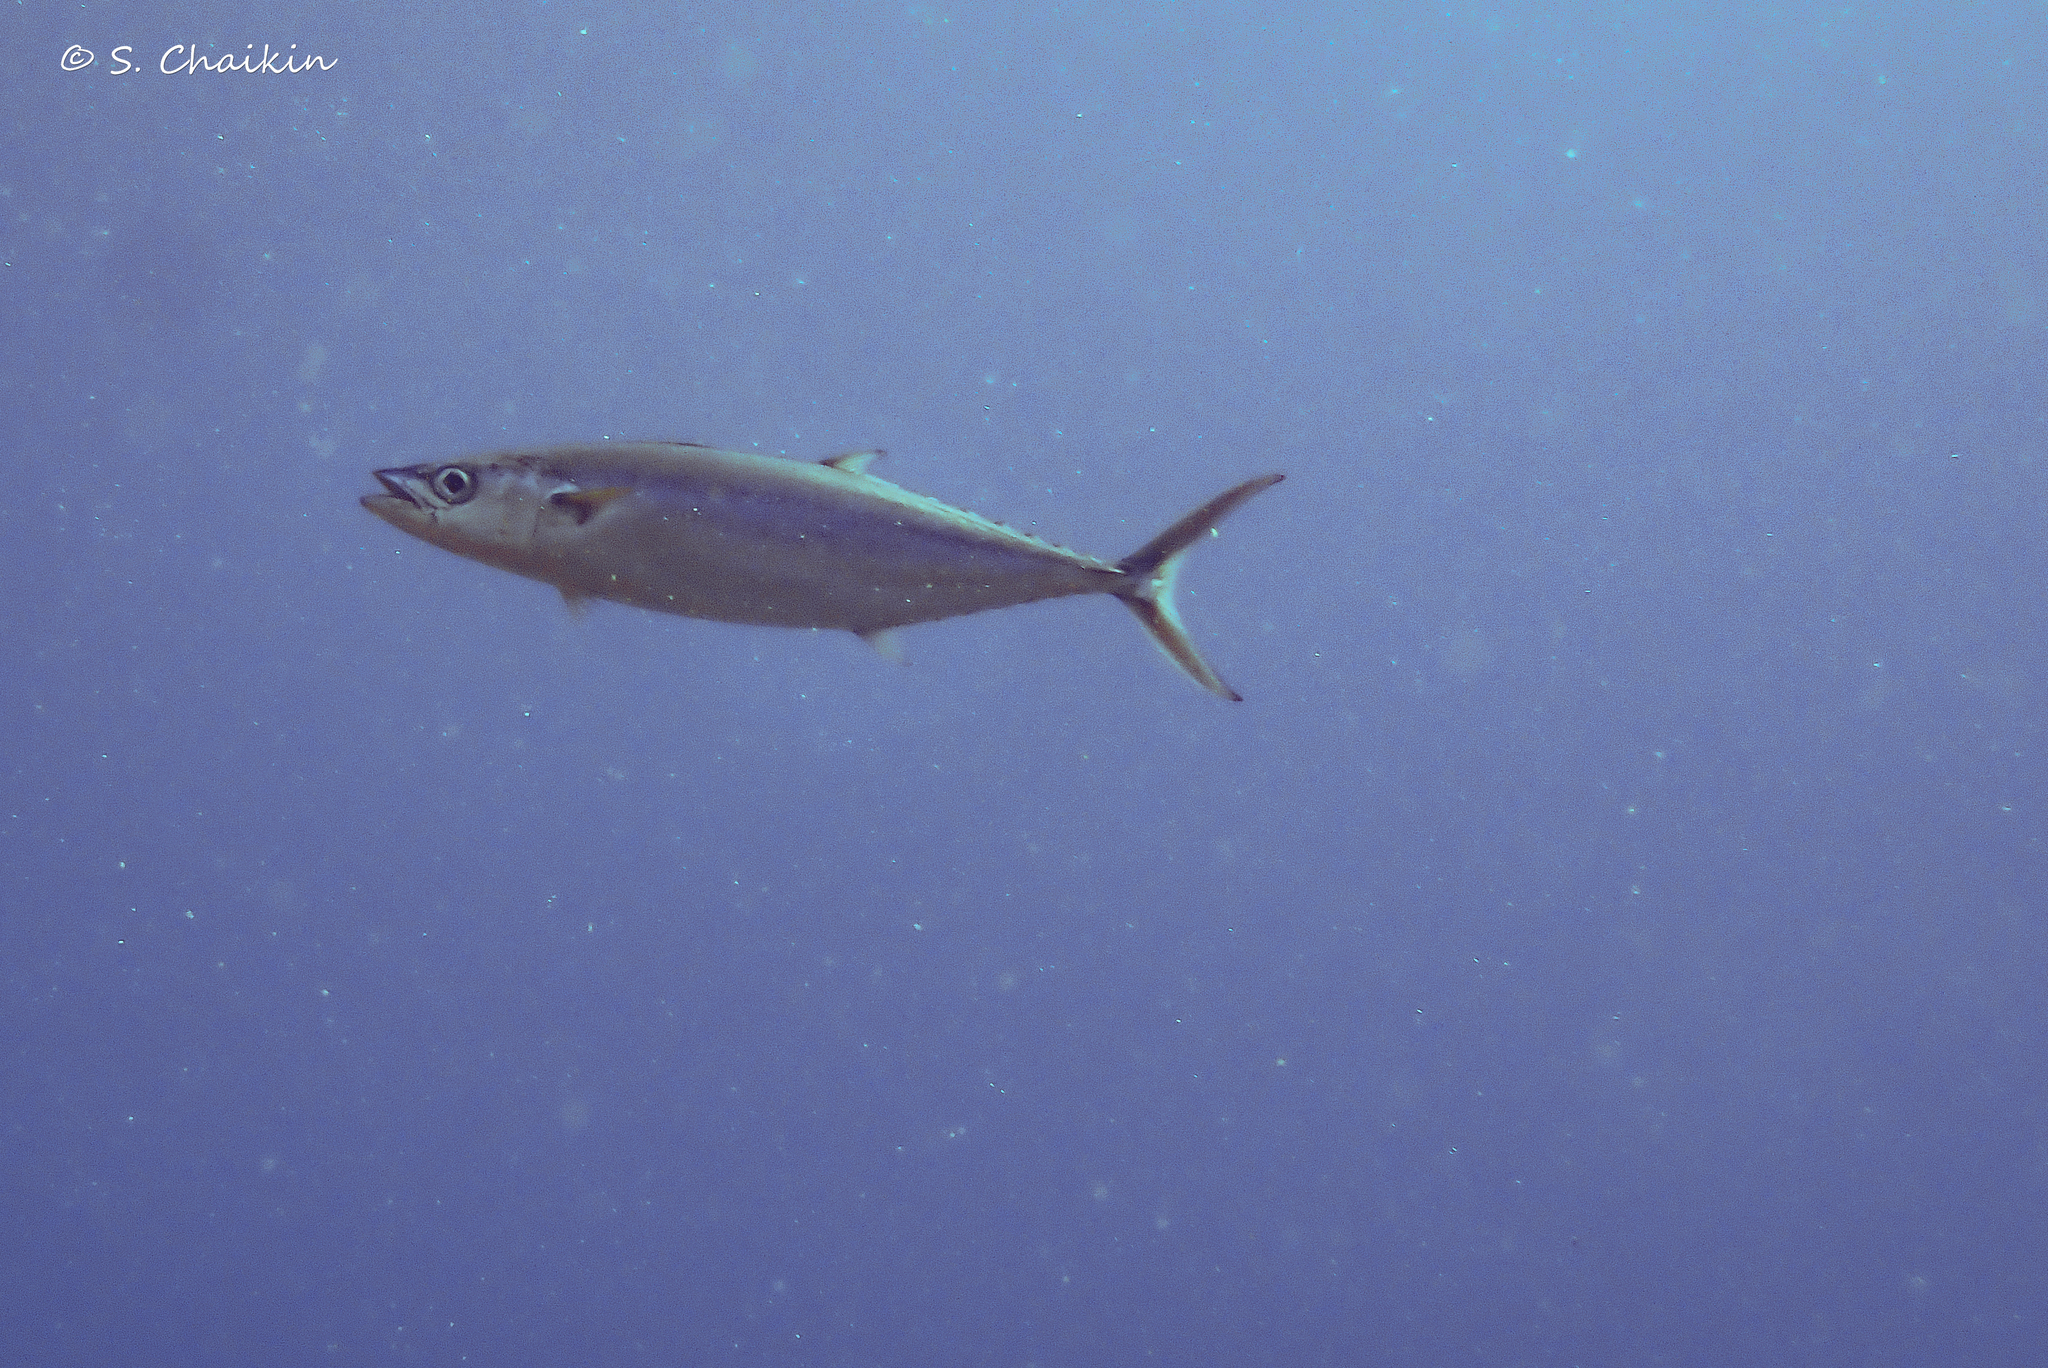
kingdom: Animalia
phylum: Chordata
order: Perciformes
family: Scombridae
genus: Grammatorcynus
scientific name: Grammatorcynus bilineatus
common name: Double-lined mackerel
